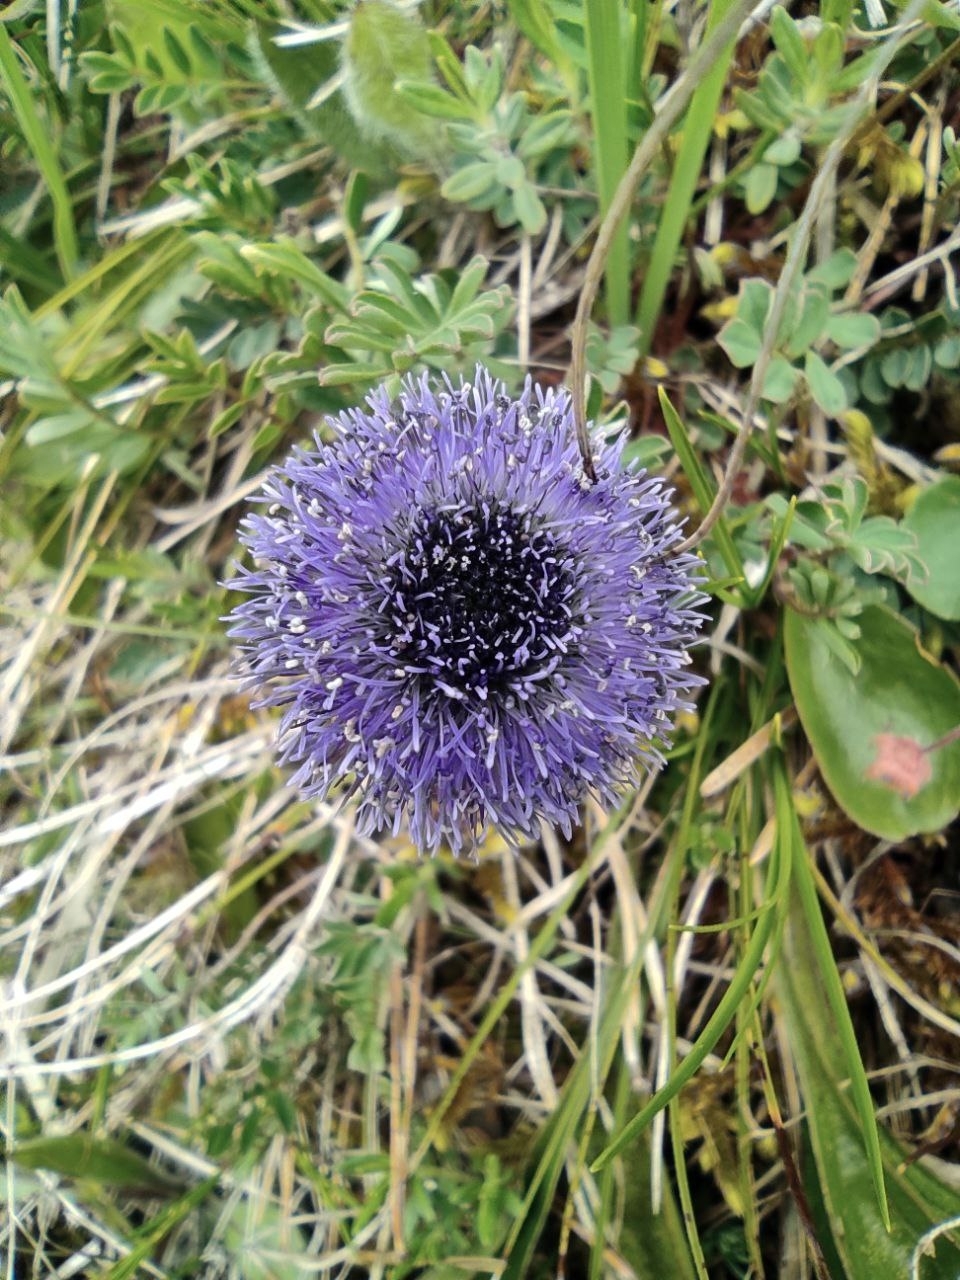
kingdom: Plantae
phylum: Tracheophyta
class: Magnoliopsida
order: Lamiales
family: Plantaginaceae
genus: Globularia
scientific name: Globularia bisnagarica
